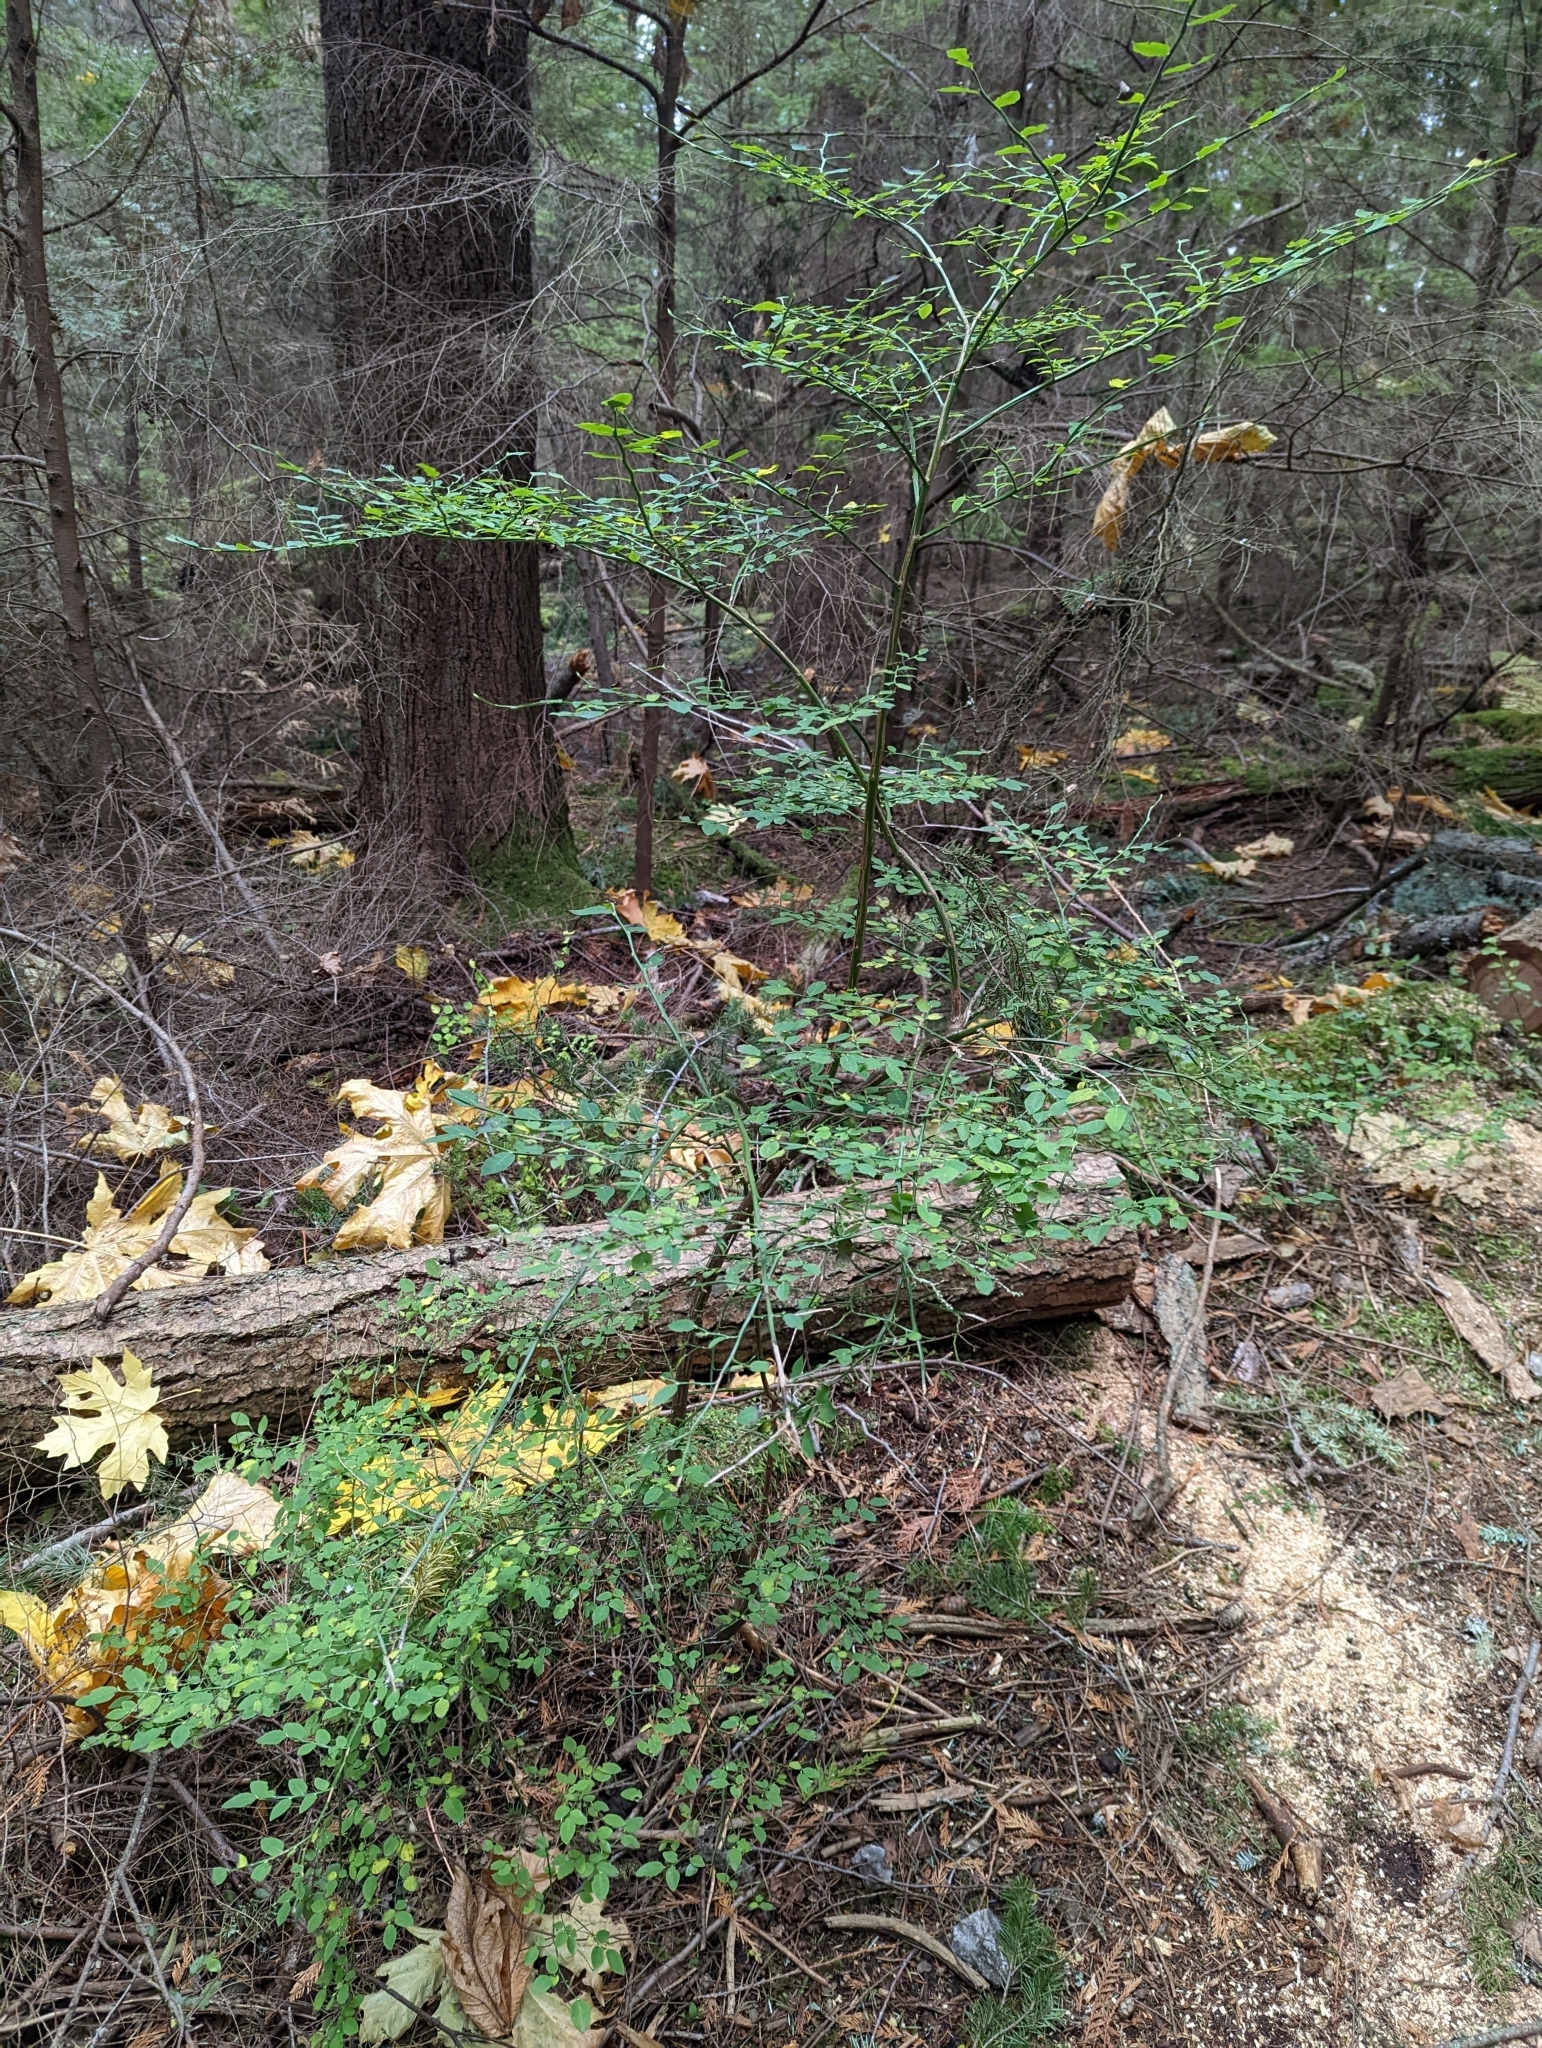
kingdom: Plantae
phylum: Tracheophyta
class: Magnoliopsida
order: Ericales
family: Ericaceae
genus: Vaccinium
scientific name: Vaccinium parvifolium
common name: Red-huckleberry
